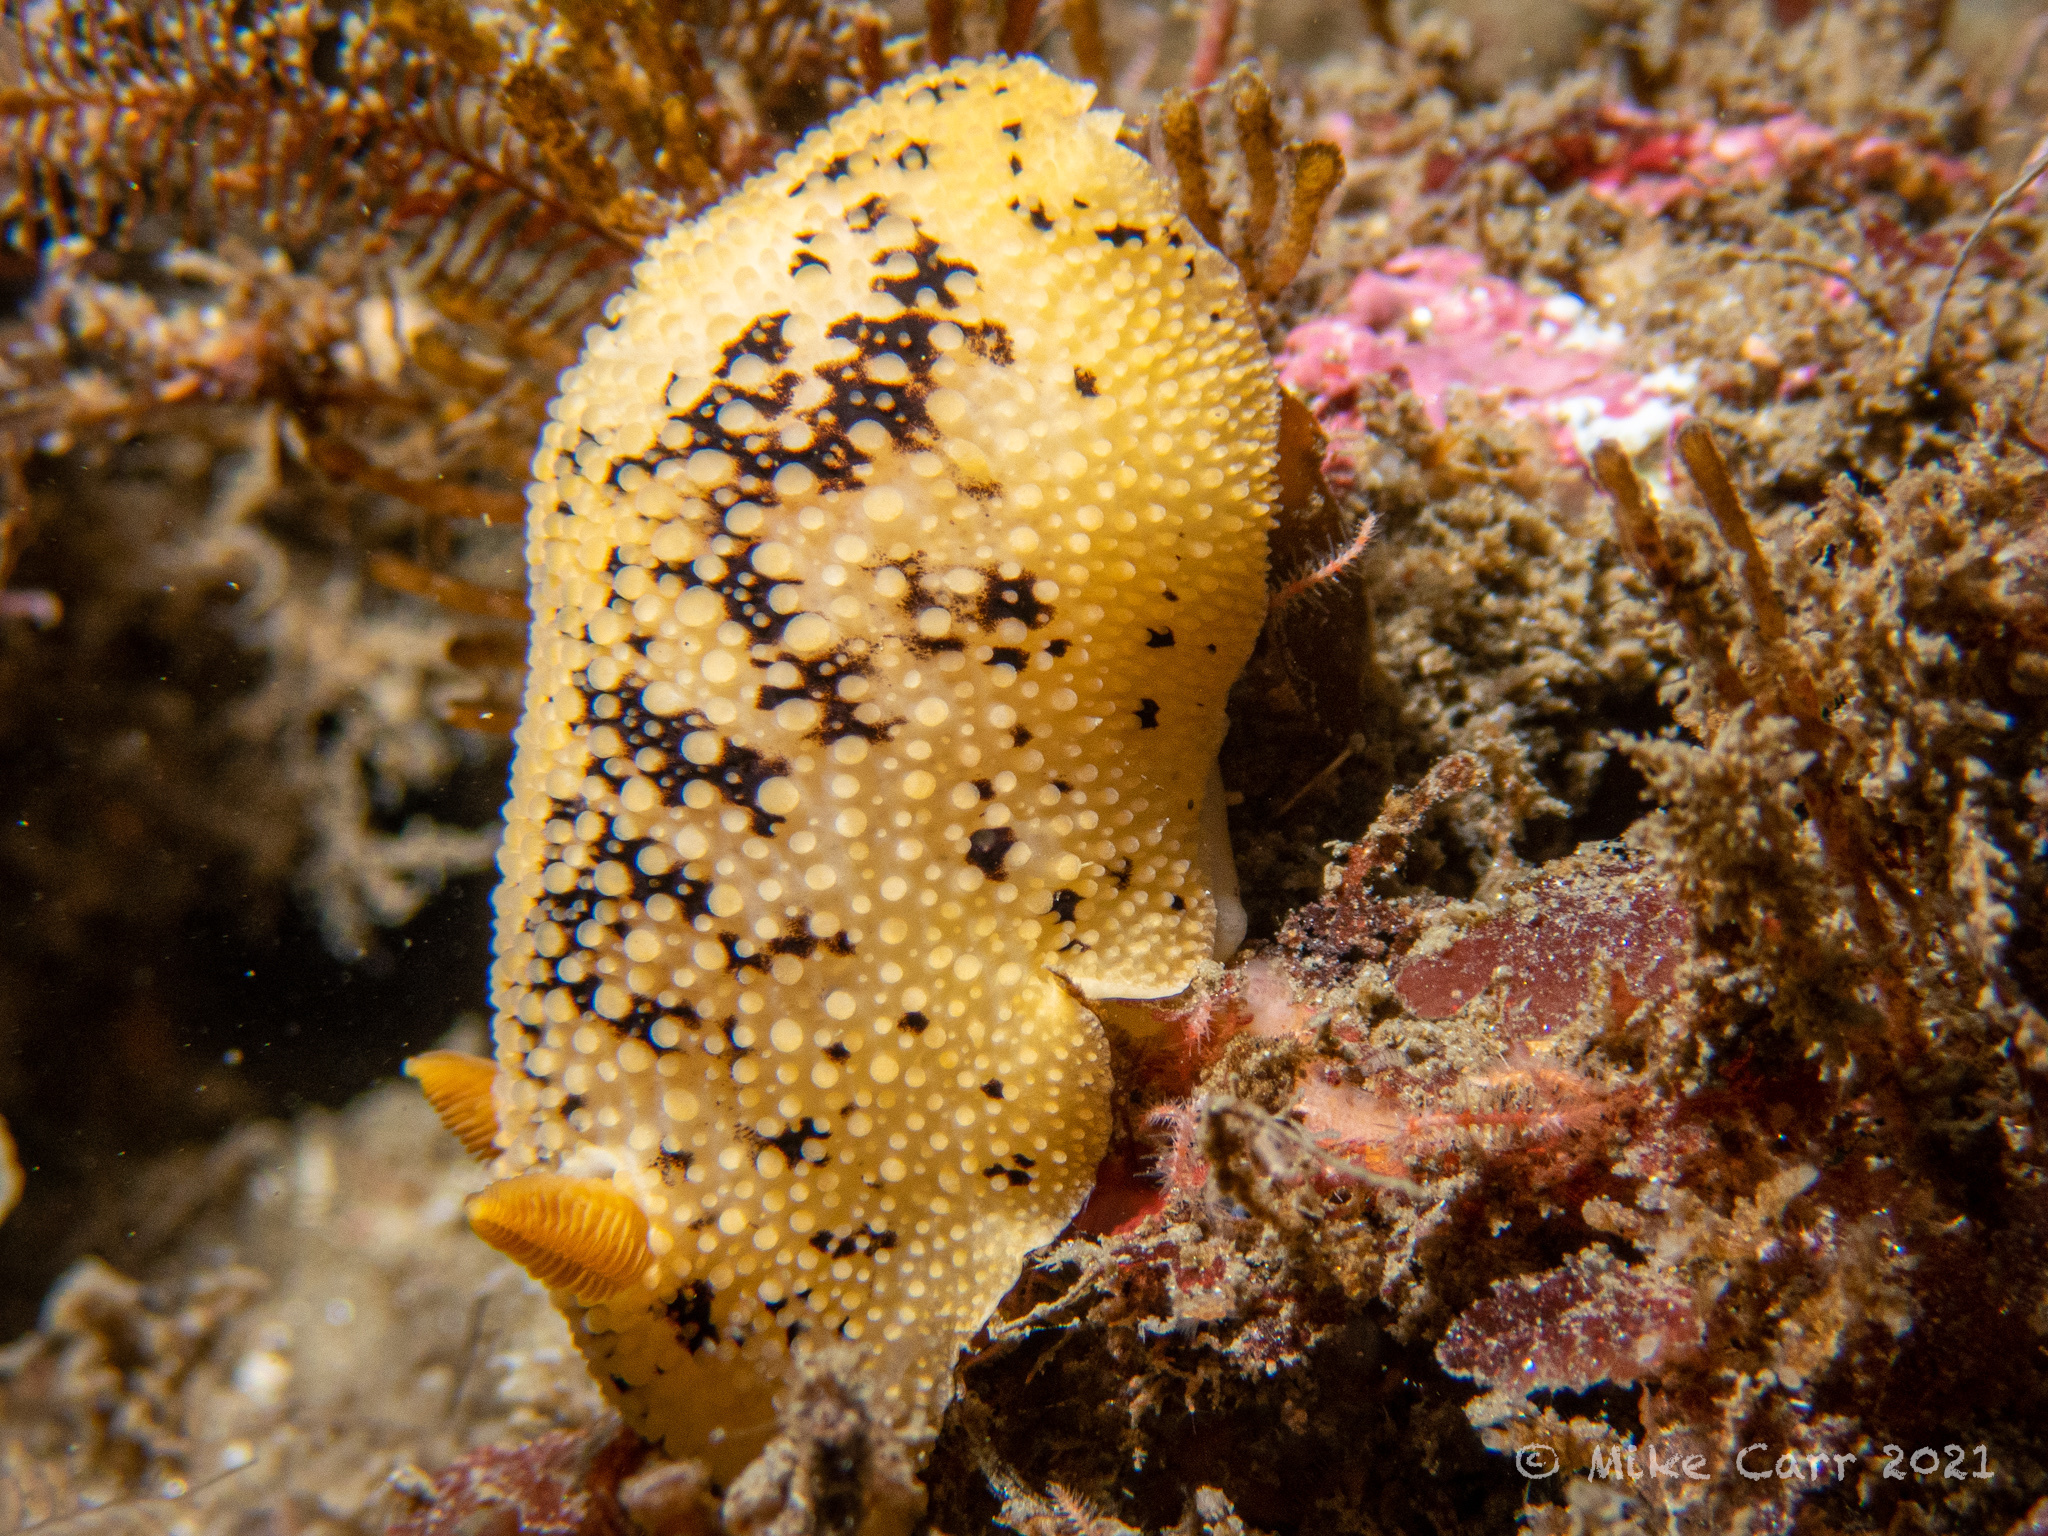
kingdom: Animalia
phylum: Mollusca
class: Gastropoda
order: Nudibranchia
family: Discodorididae
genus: Peltodoris
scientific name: Peltodoris nobilis
